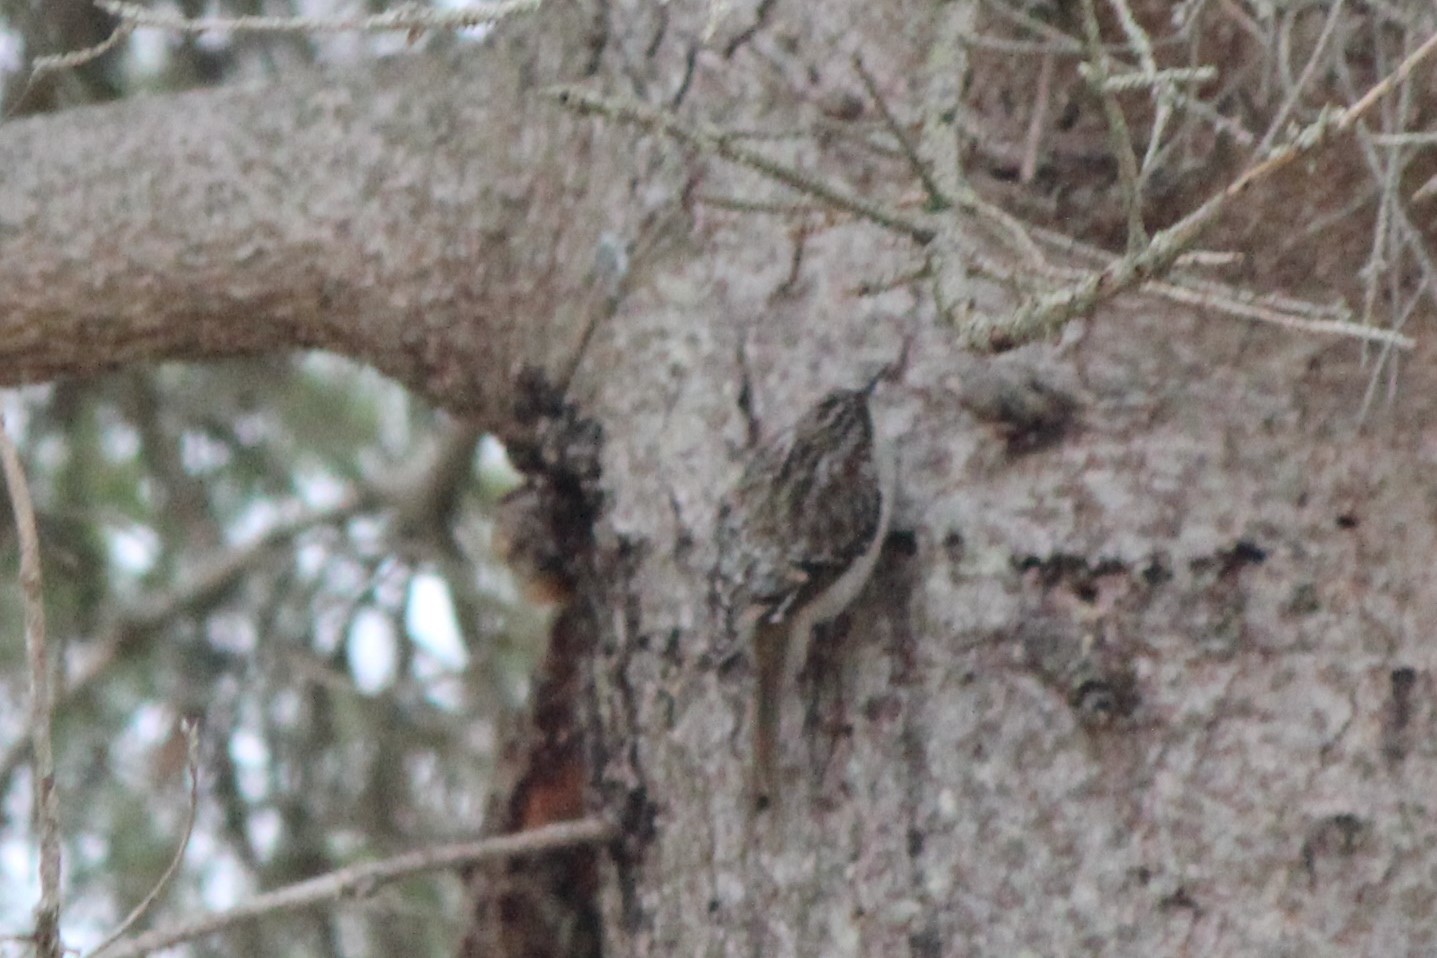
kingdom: Animalia
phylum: Chordata
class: Aves
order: Passeriformes
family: Certhiidae
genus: Certhia
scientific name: Certhia americana
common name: Brown creeper
